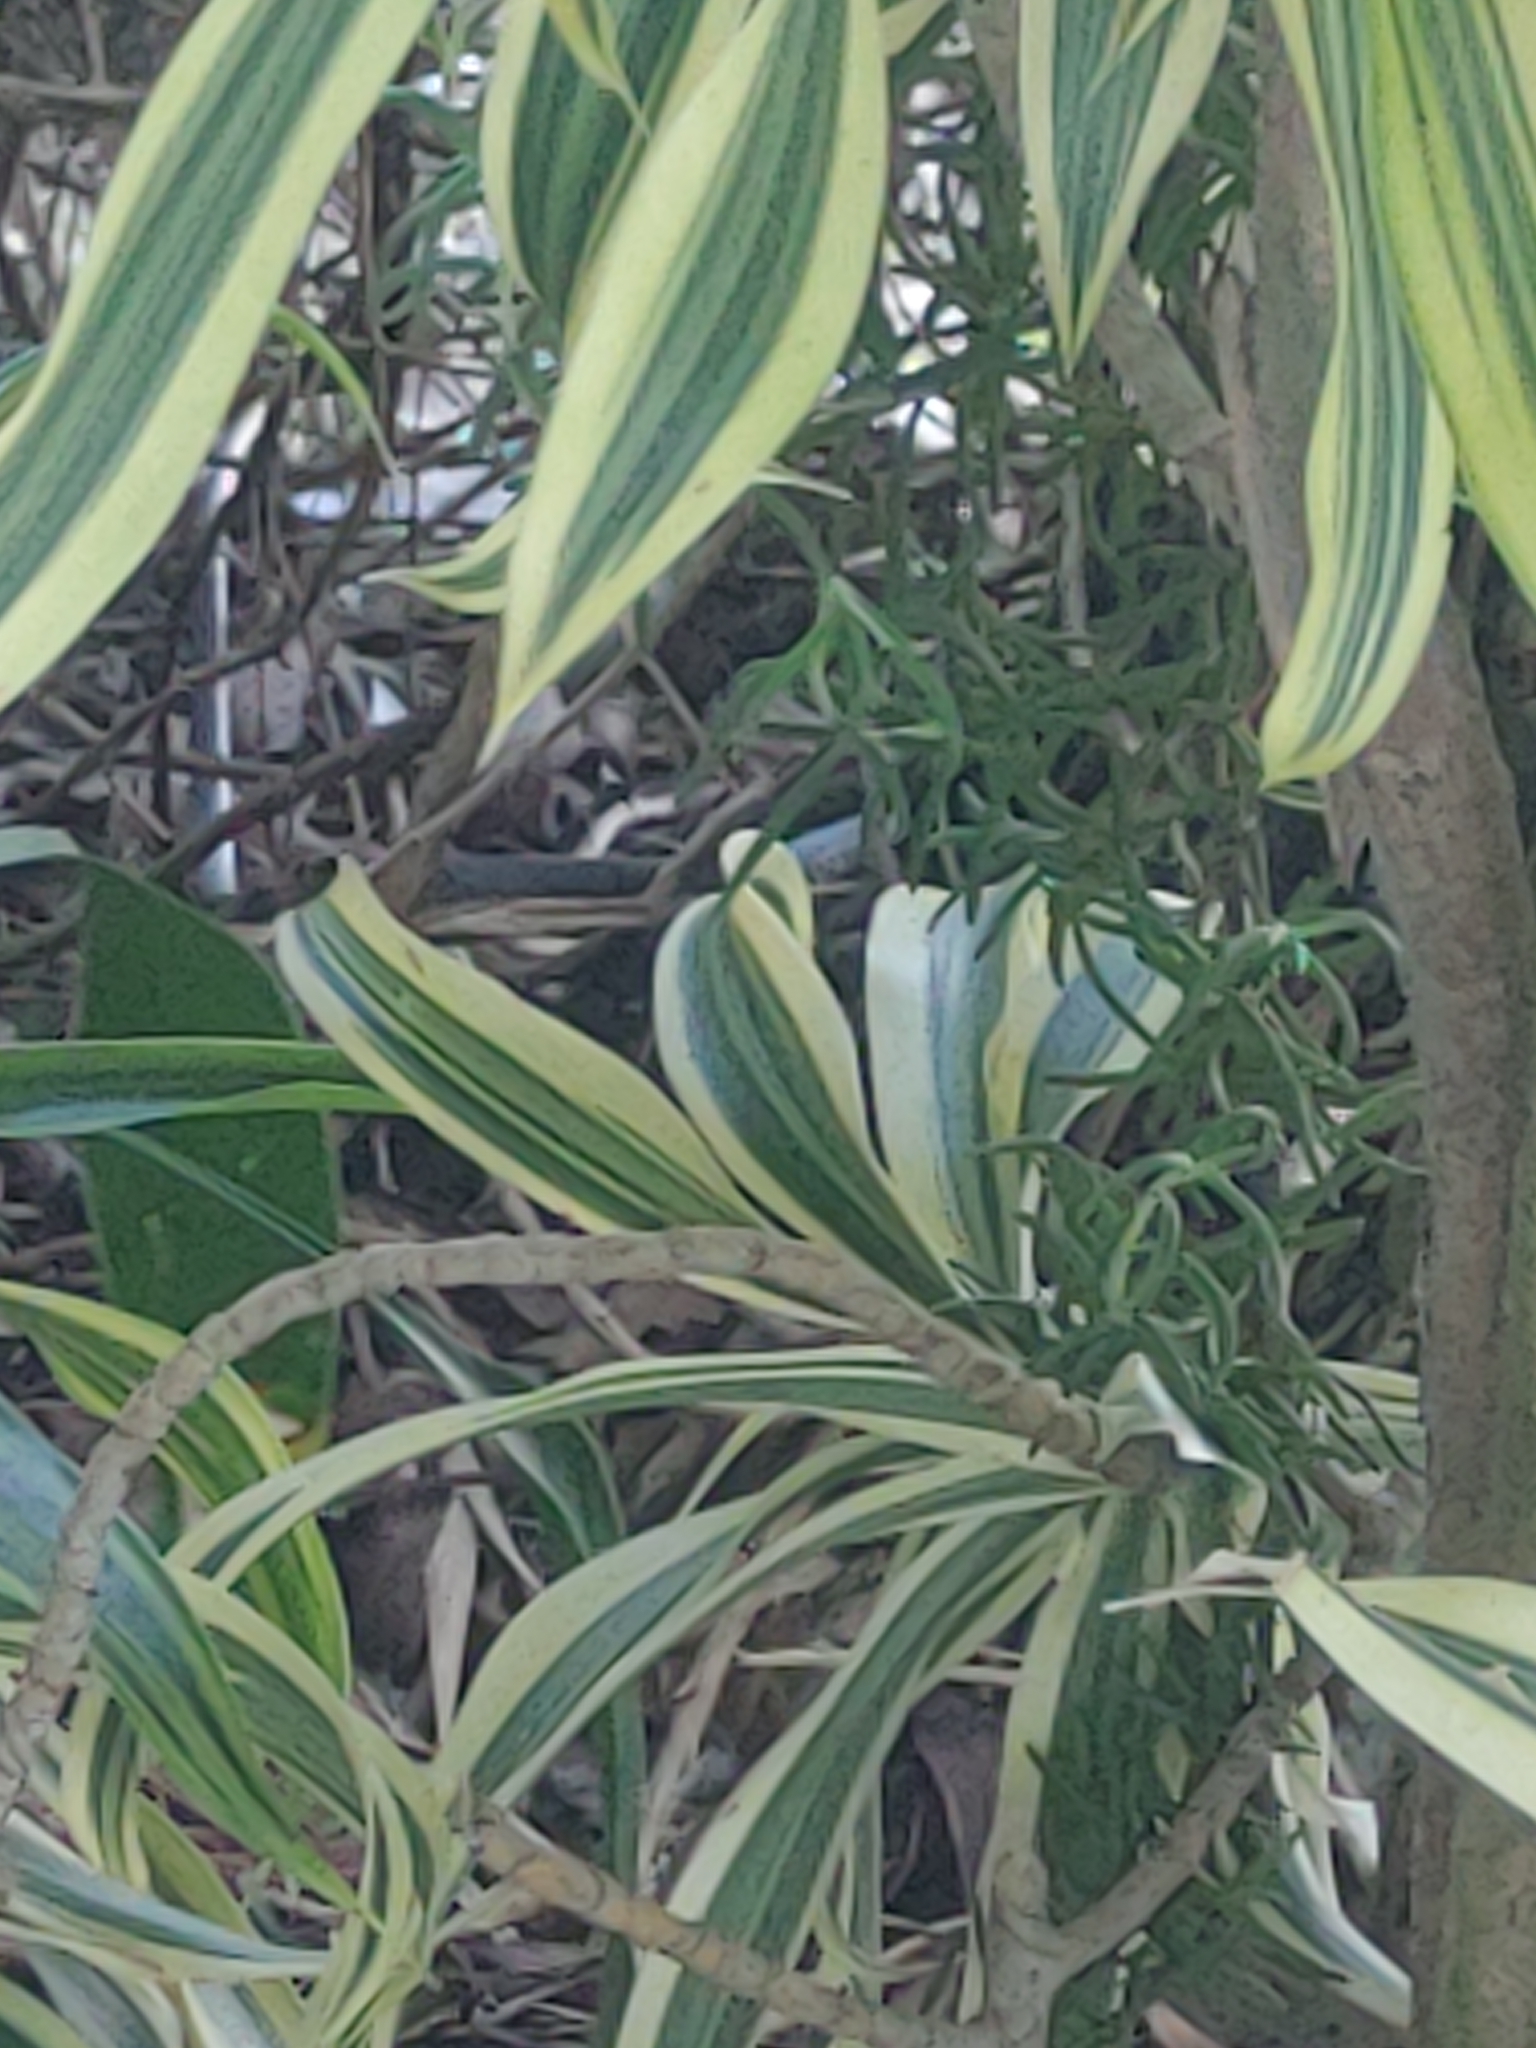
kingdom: Animalia
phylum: Chordata
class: Squamata
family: Colubridae
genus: Coluber
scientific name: Coluber constrictor
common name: Eastern racer
